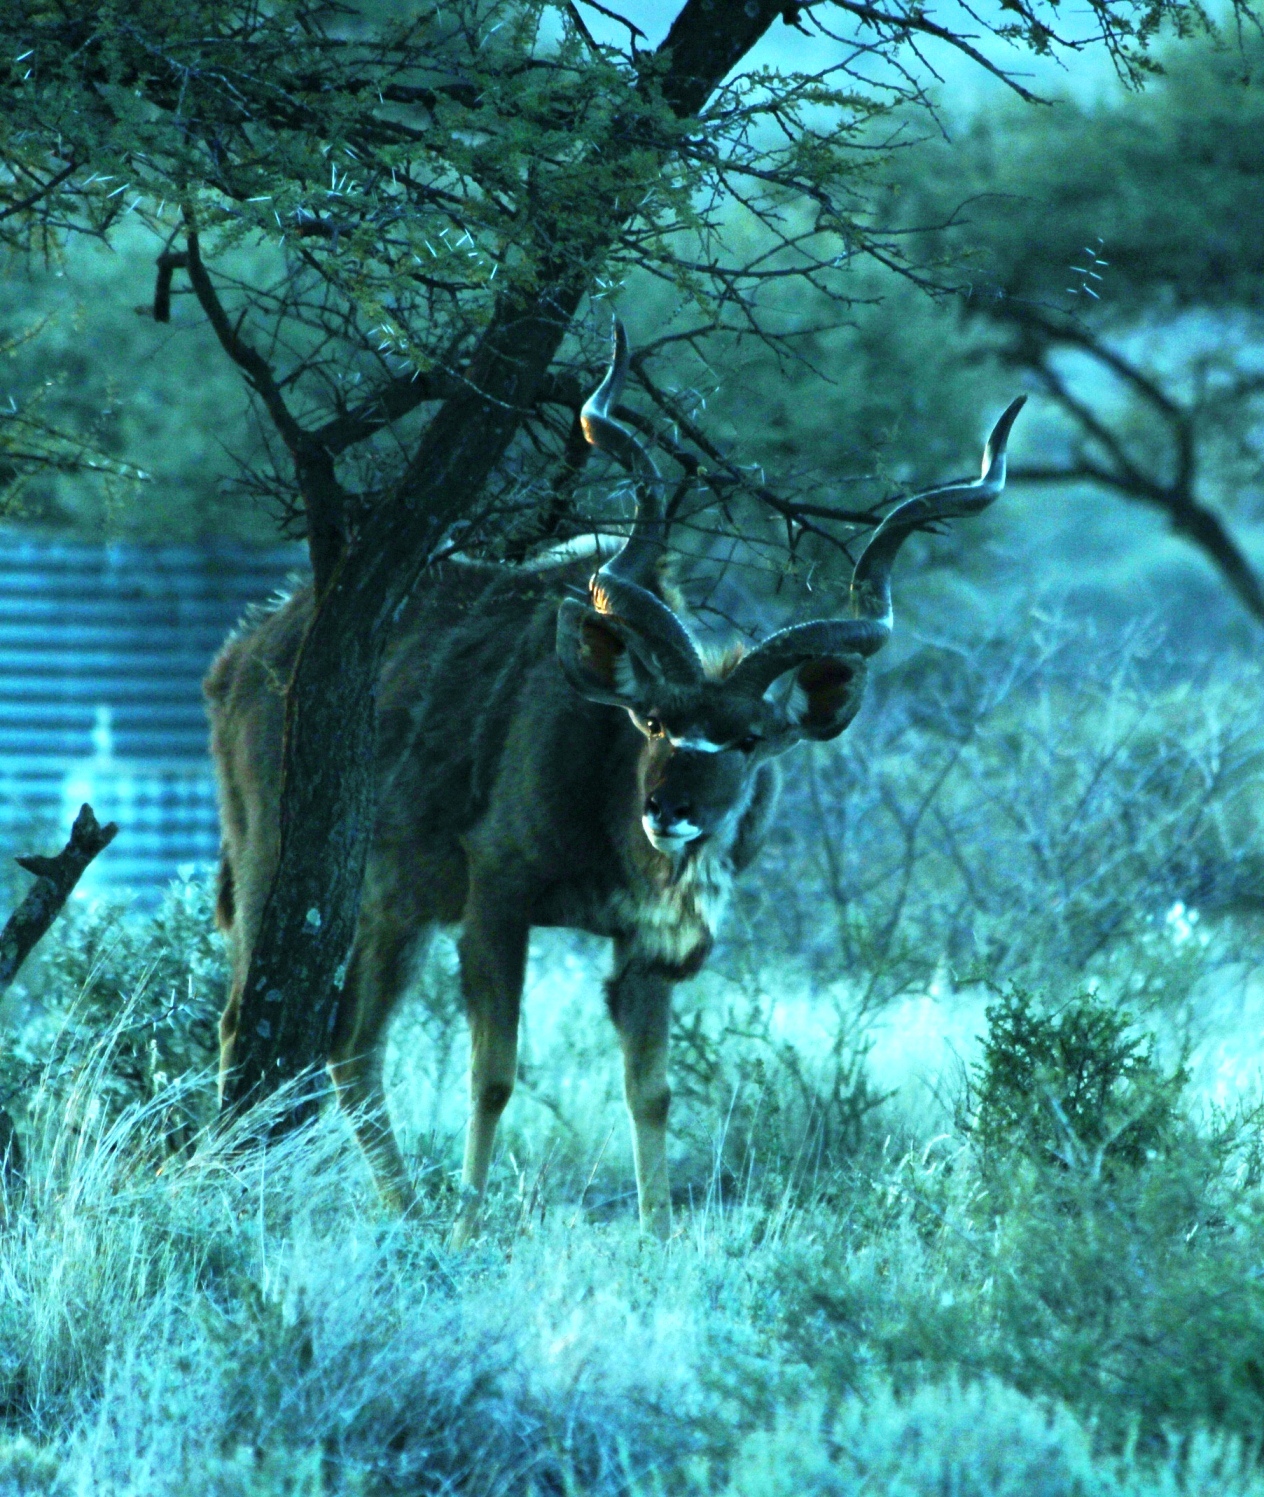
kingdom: Animalia
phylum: Chordata
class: Mammalia
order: Artiodactyla
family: Bovidae
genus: Tragelaphus
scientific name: Tragelaphus strepsiceros
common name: Greater kudu
